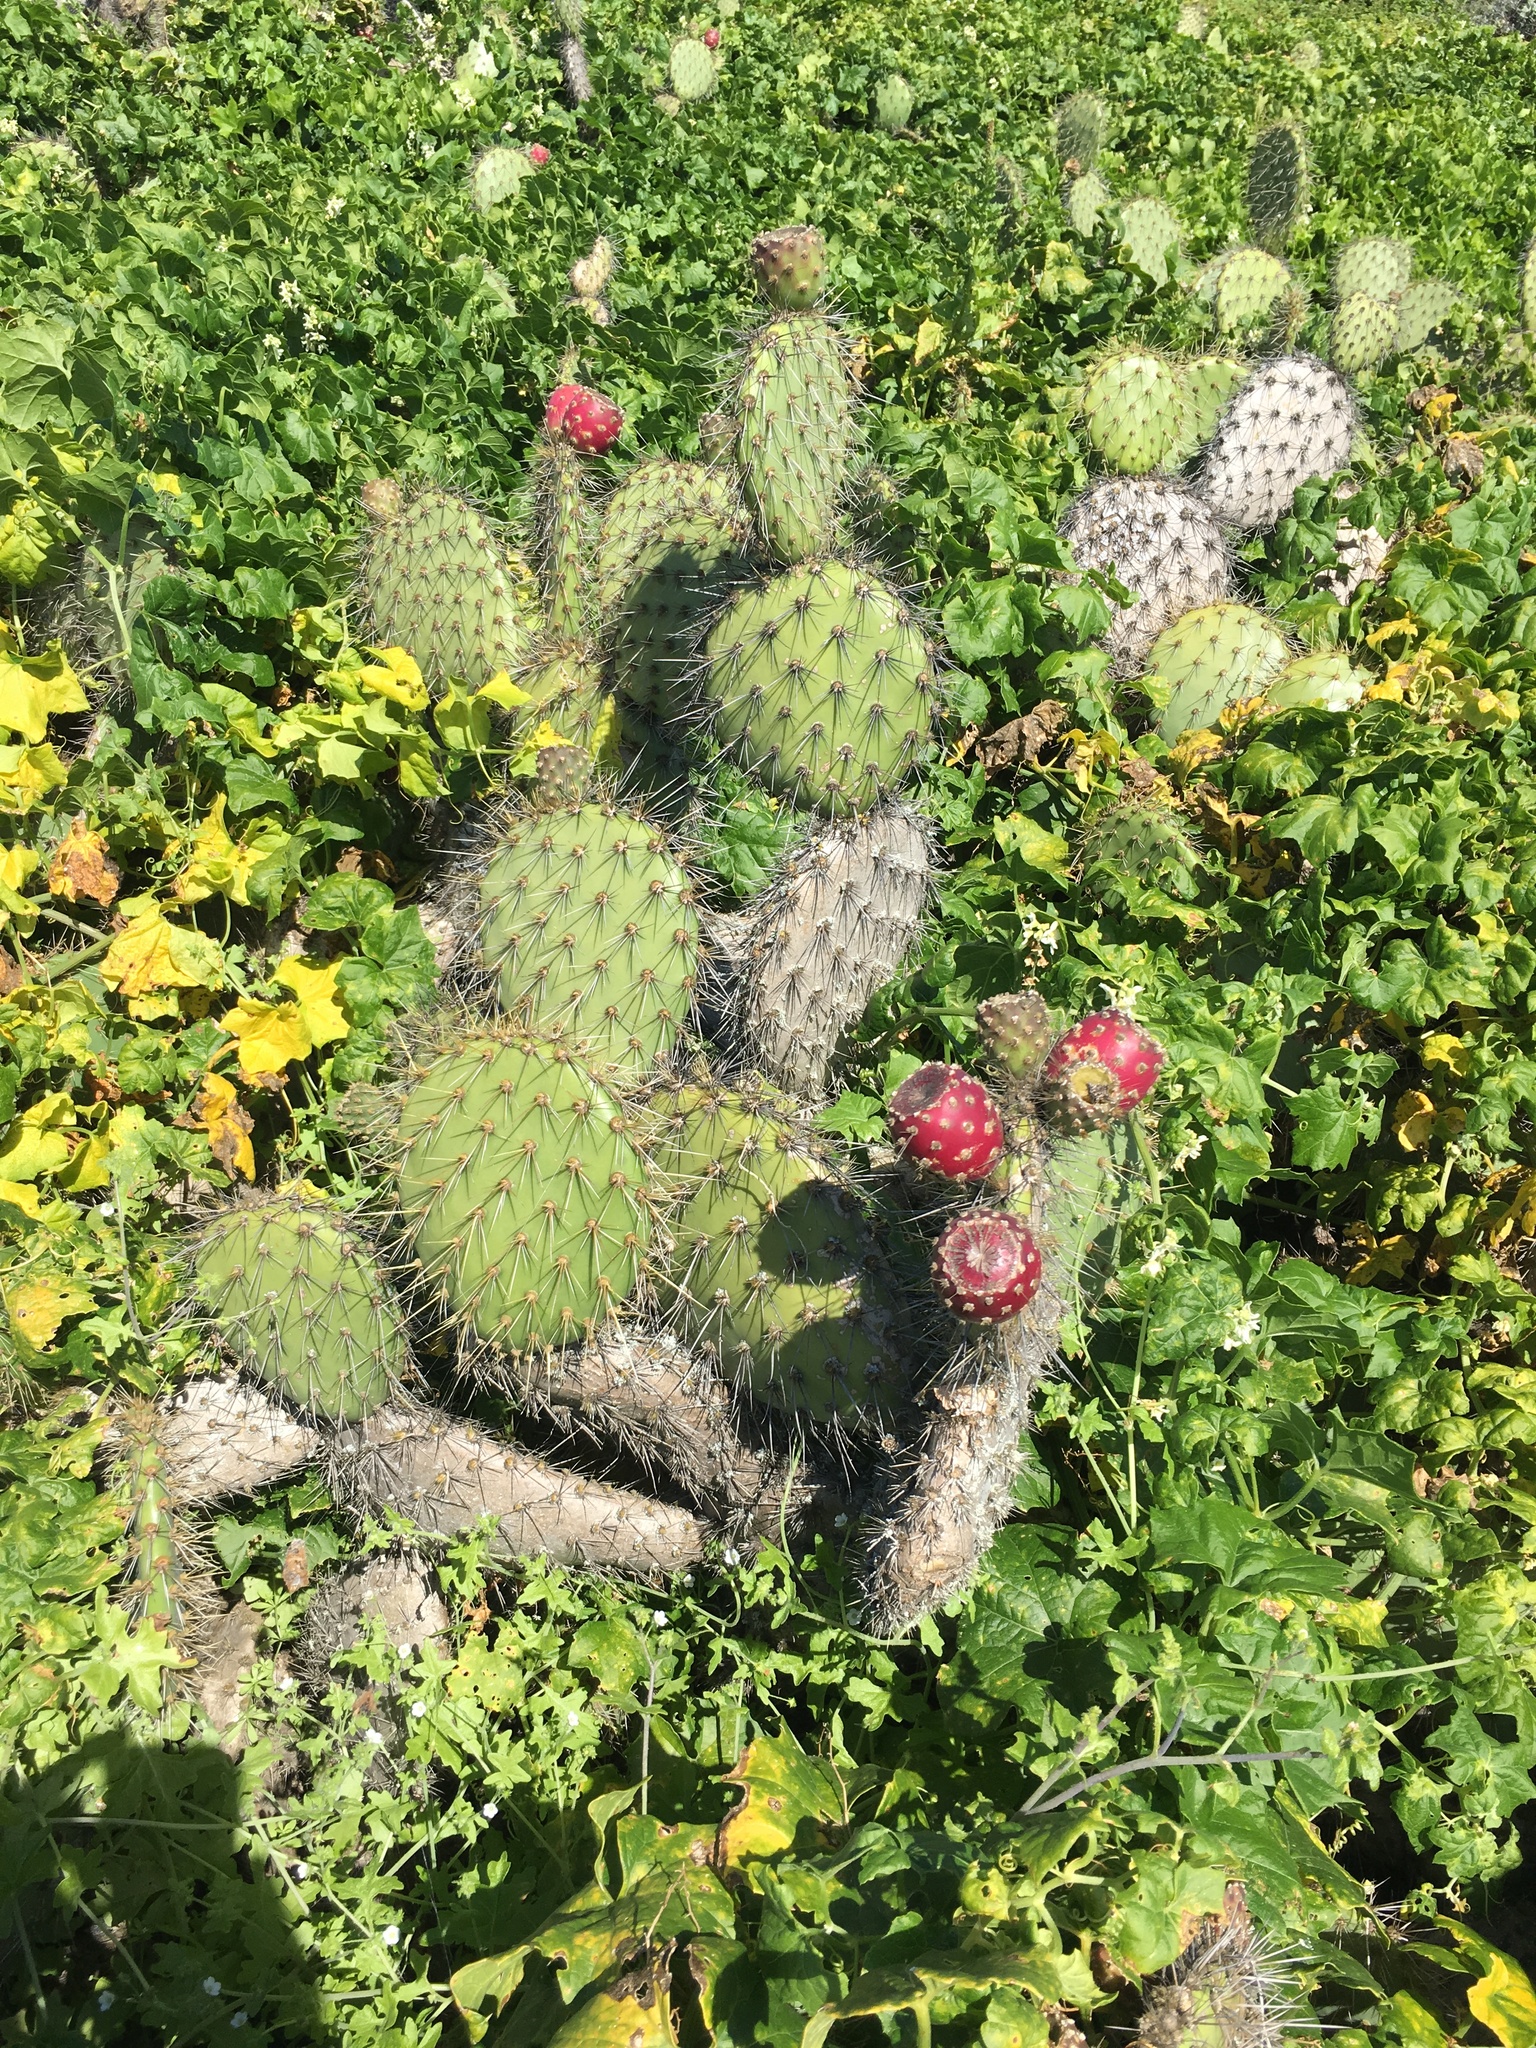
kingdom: Plantae
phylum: Tracheophyta
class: Magnoliopsida
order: Cucurbitales
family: Cucurbitaceae
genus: Marah
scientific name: Marah macrocarpa
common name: Cucamonga manroot
